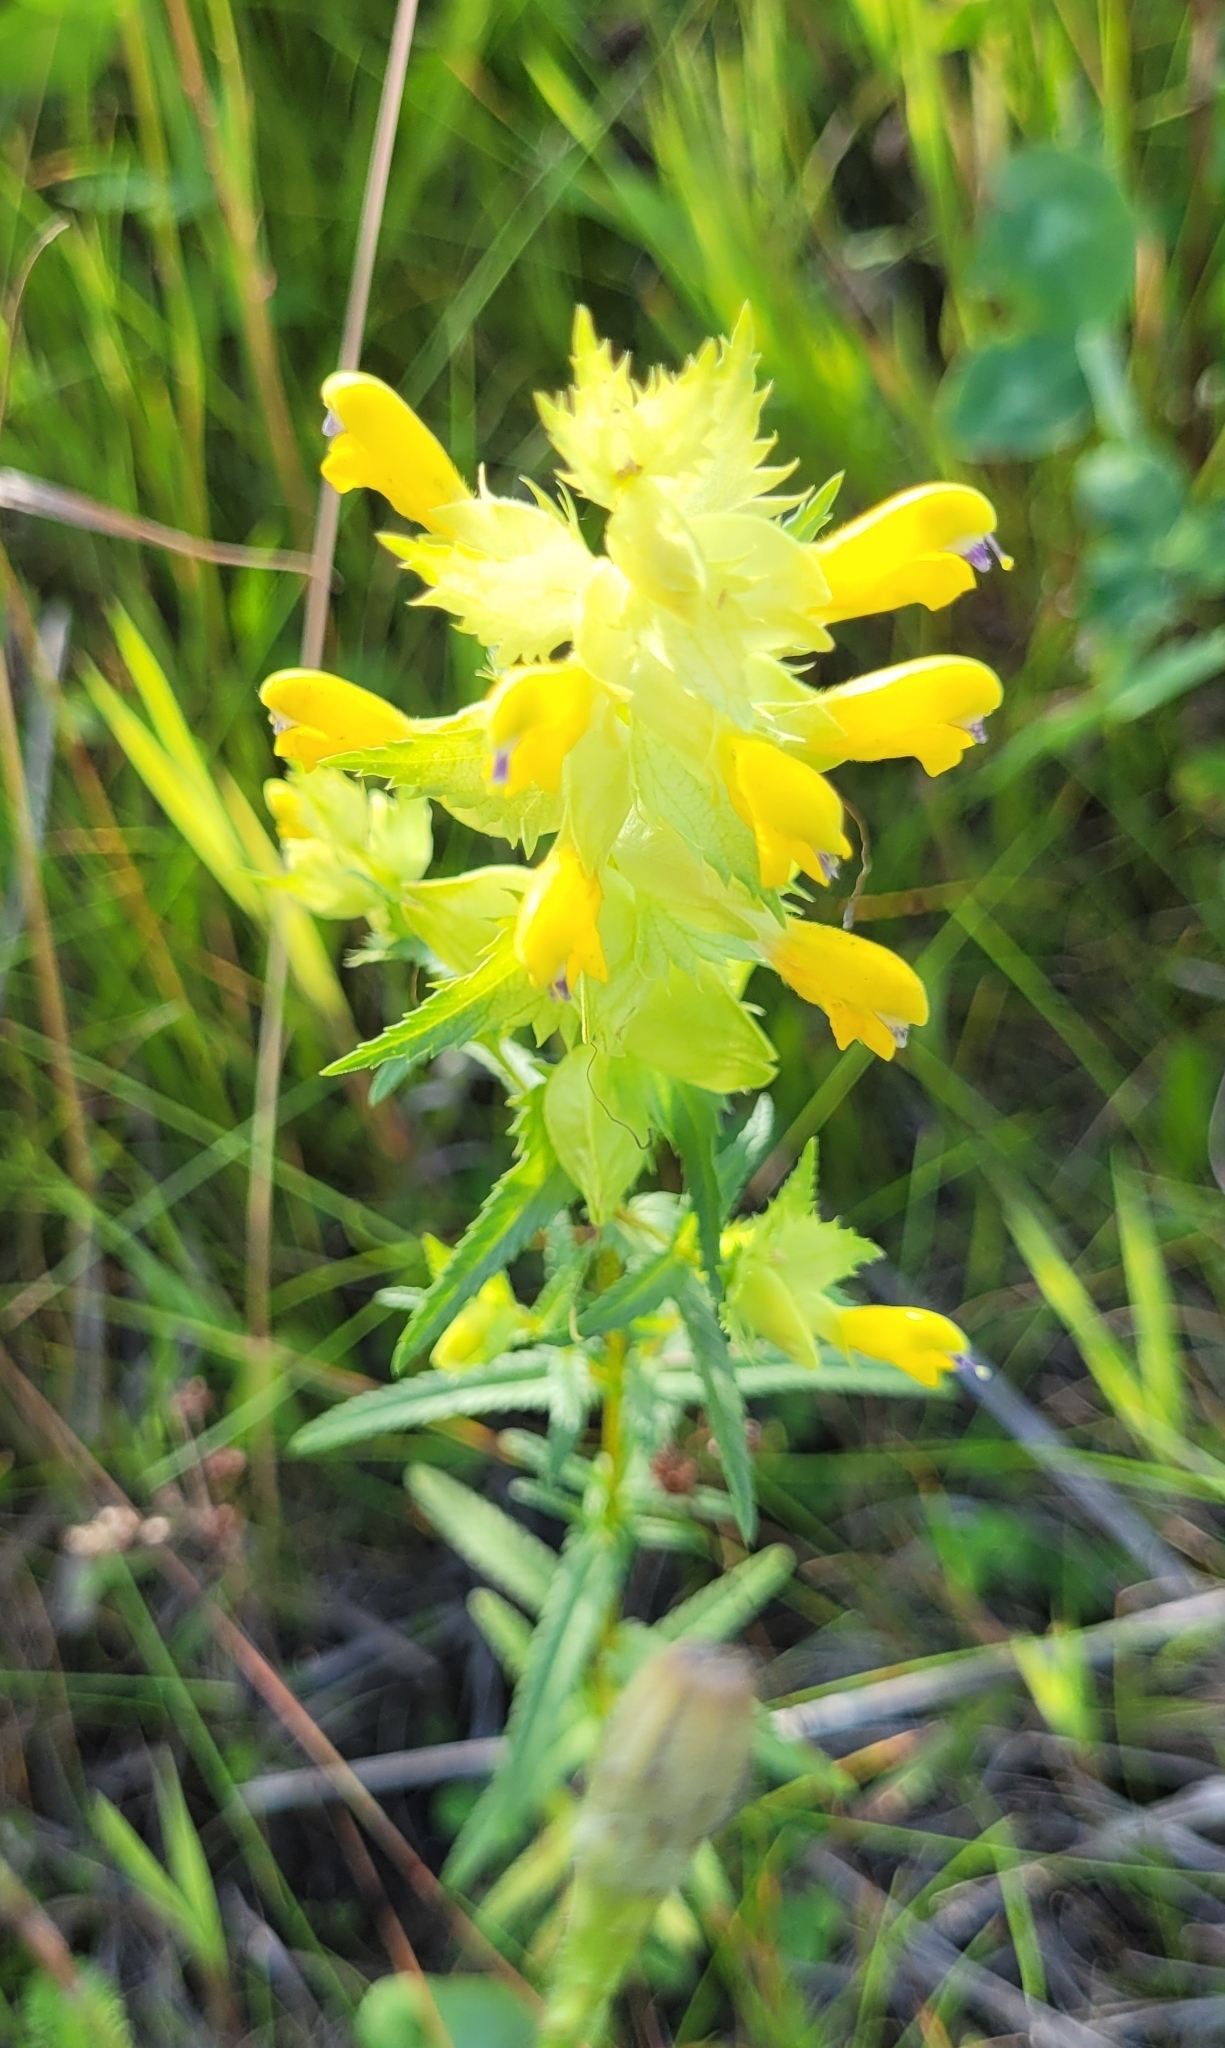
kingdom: Plantae
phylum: Tracheophyta
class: Magnoliopsida
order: Lamiales
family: Orobanchaceae
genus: Rhinanthus
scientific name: Rhinanthus serotinus
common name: Late-flowering yellow rattle
